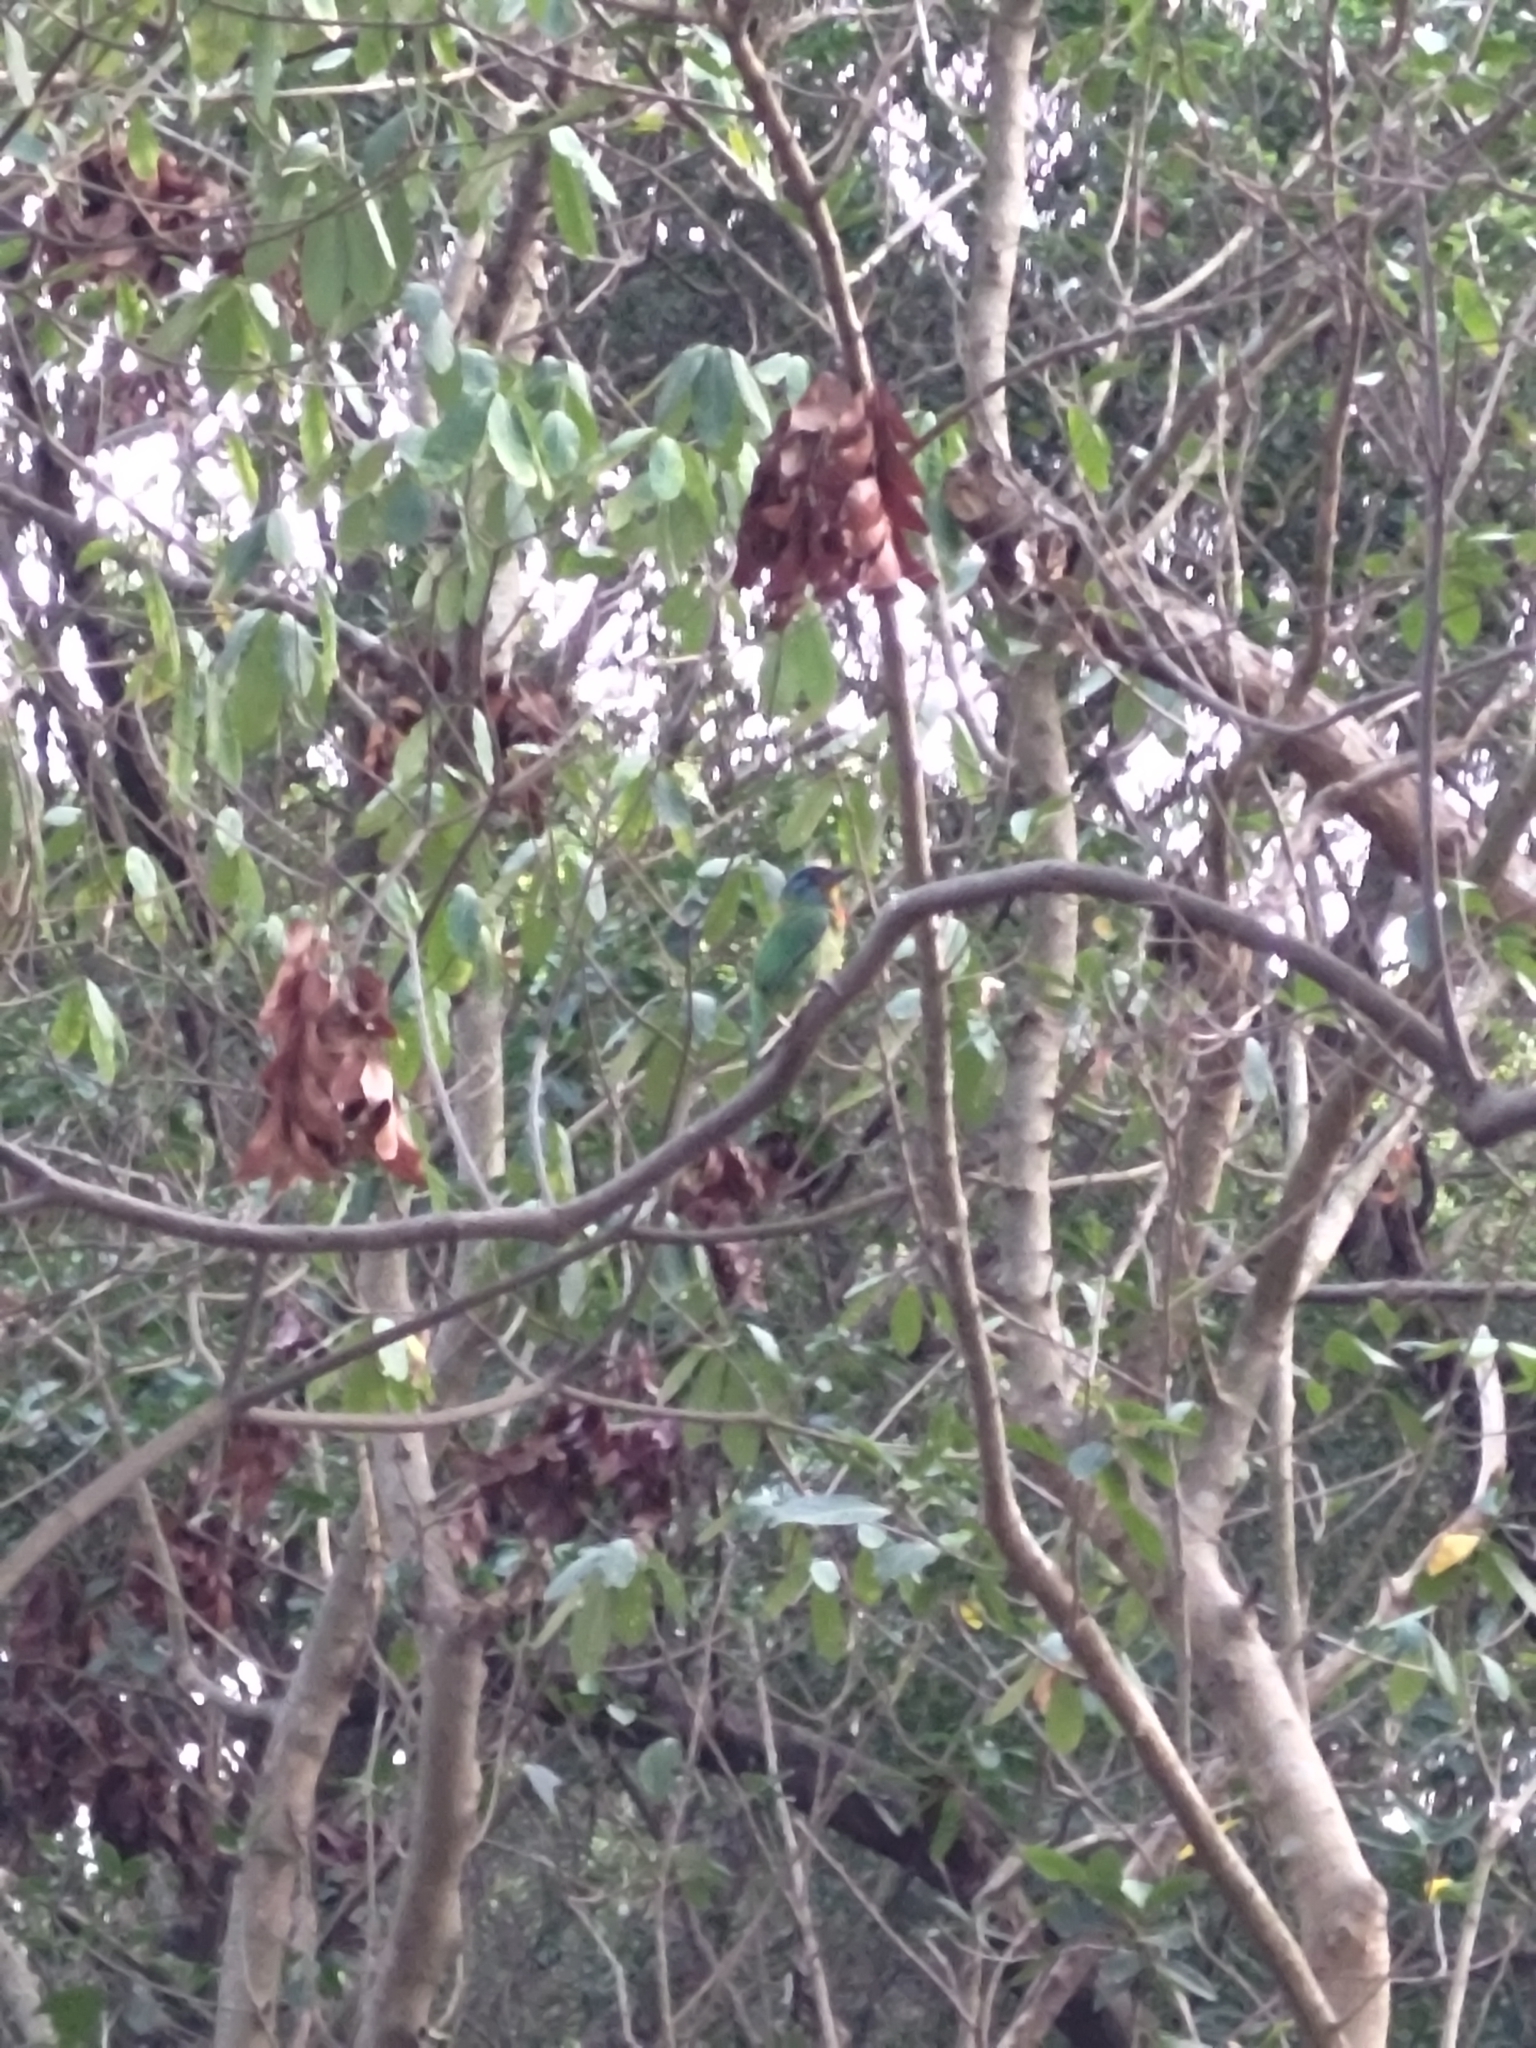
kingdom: Animalia
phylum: Chordata
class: Aves
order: Piciformes
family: Megalaimidae
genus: Psilopogon
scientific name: Psilopogon nuchalis
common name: Taiwan barbet
